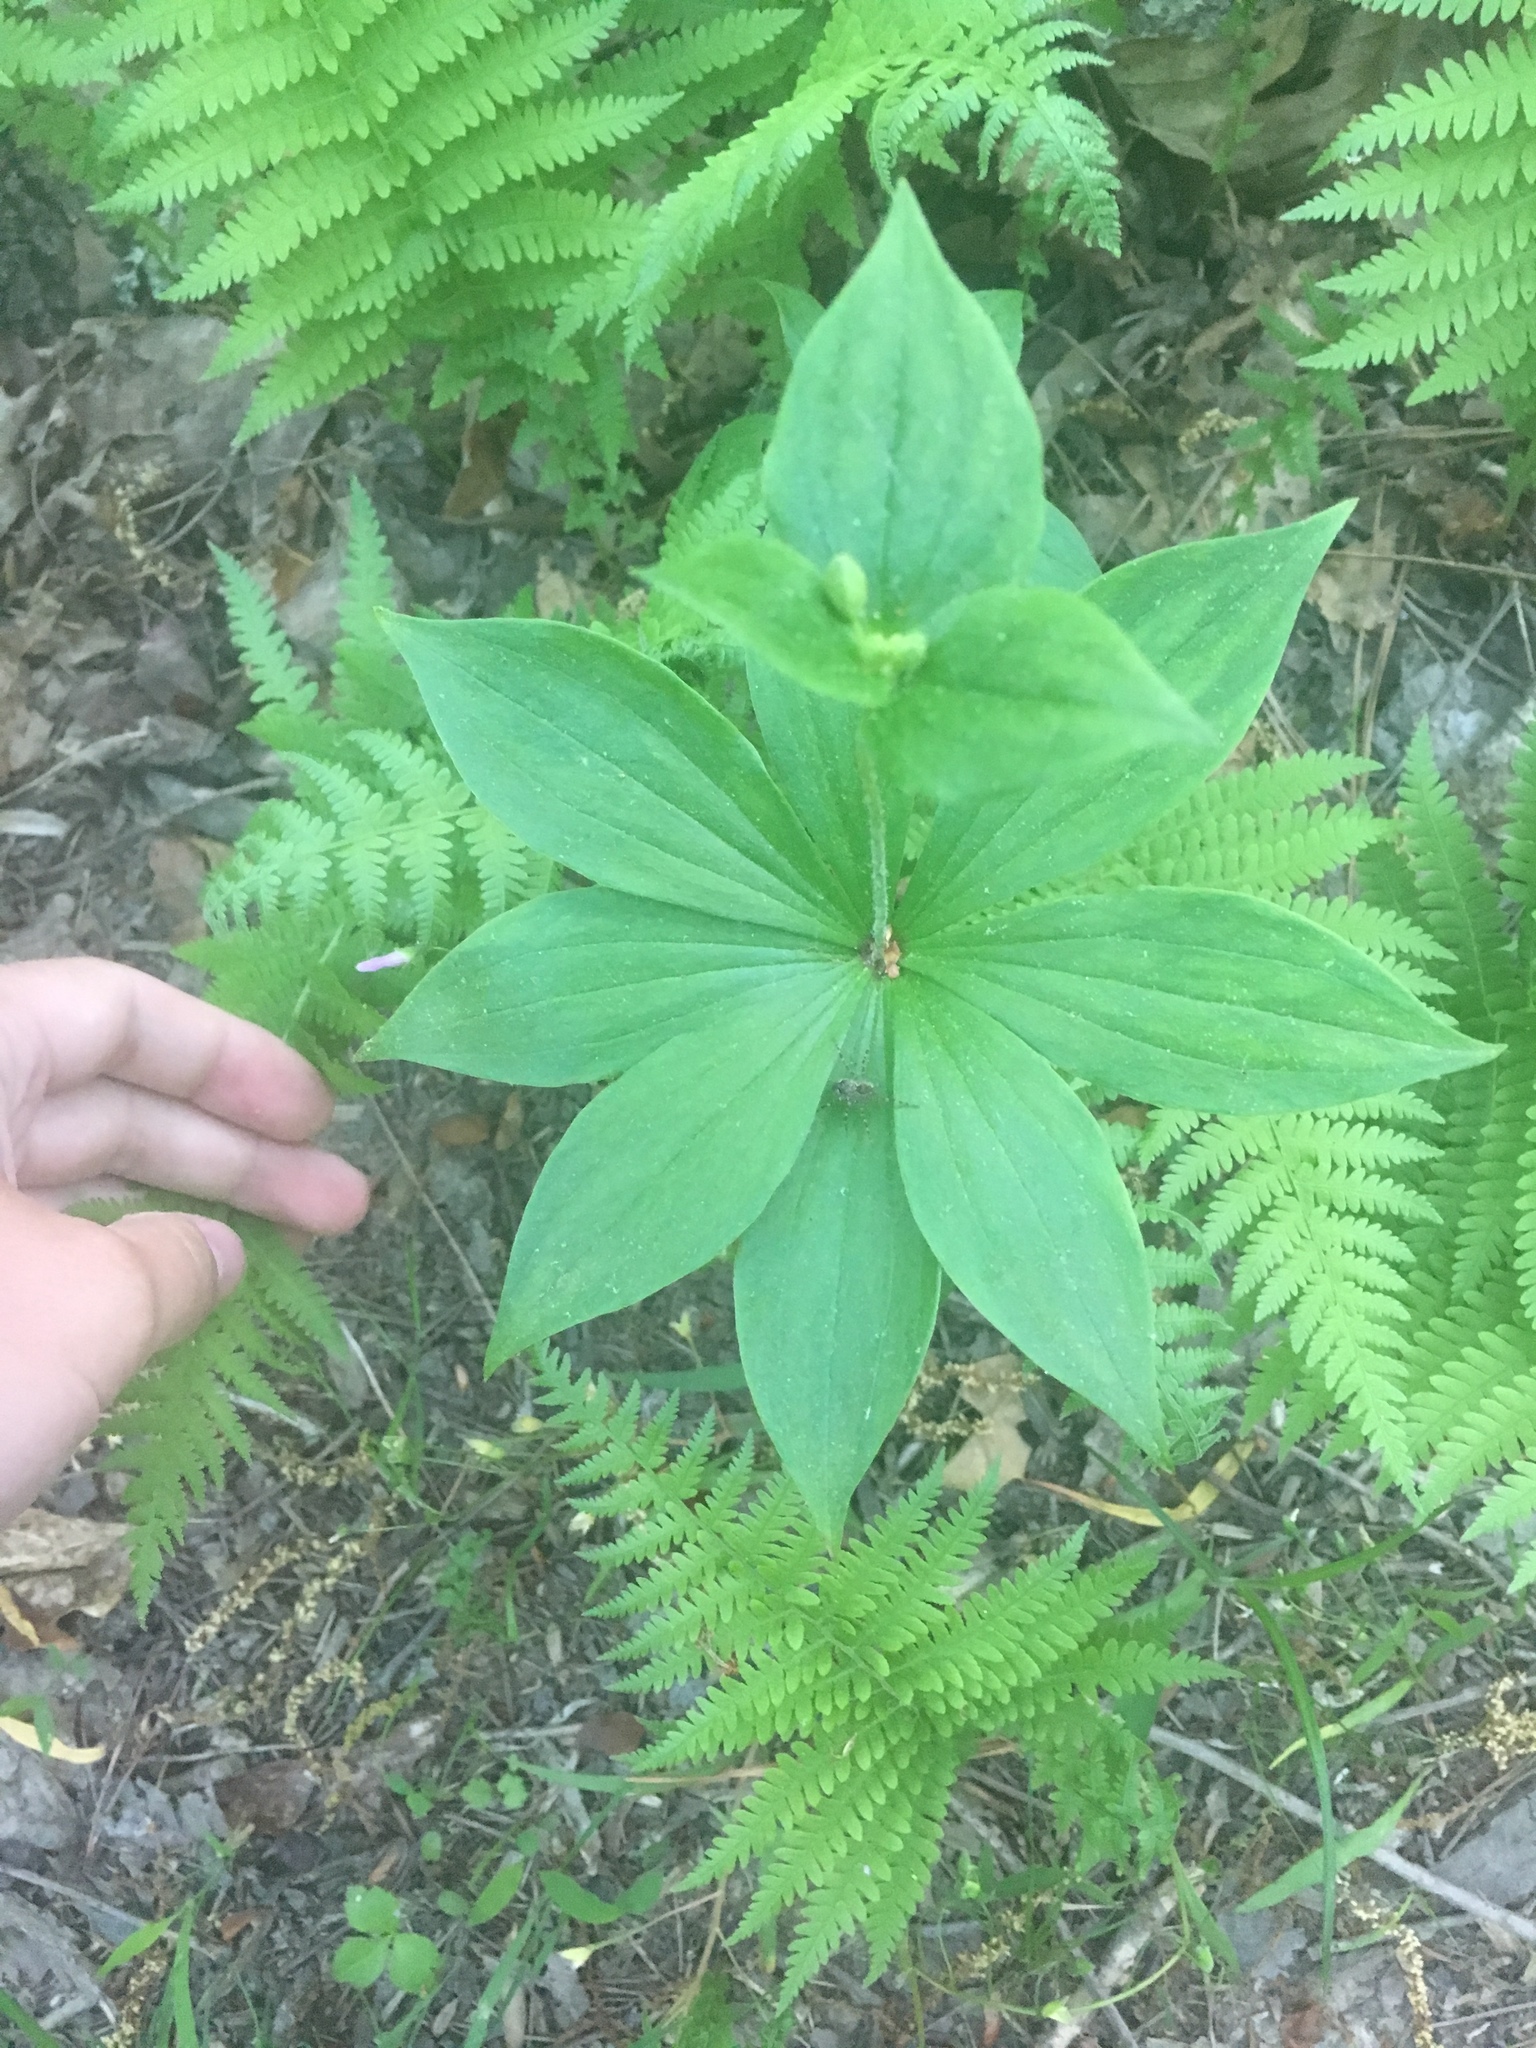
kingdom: Plantae
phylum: Tracheophyta
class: Liliopsida
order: Liliales
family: Liliaceae
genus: Medeola
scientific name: Medeola virginiana
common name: Indian cucumber-root
